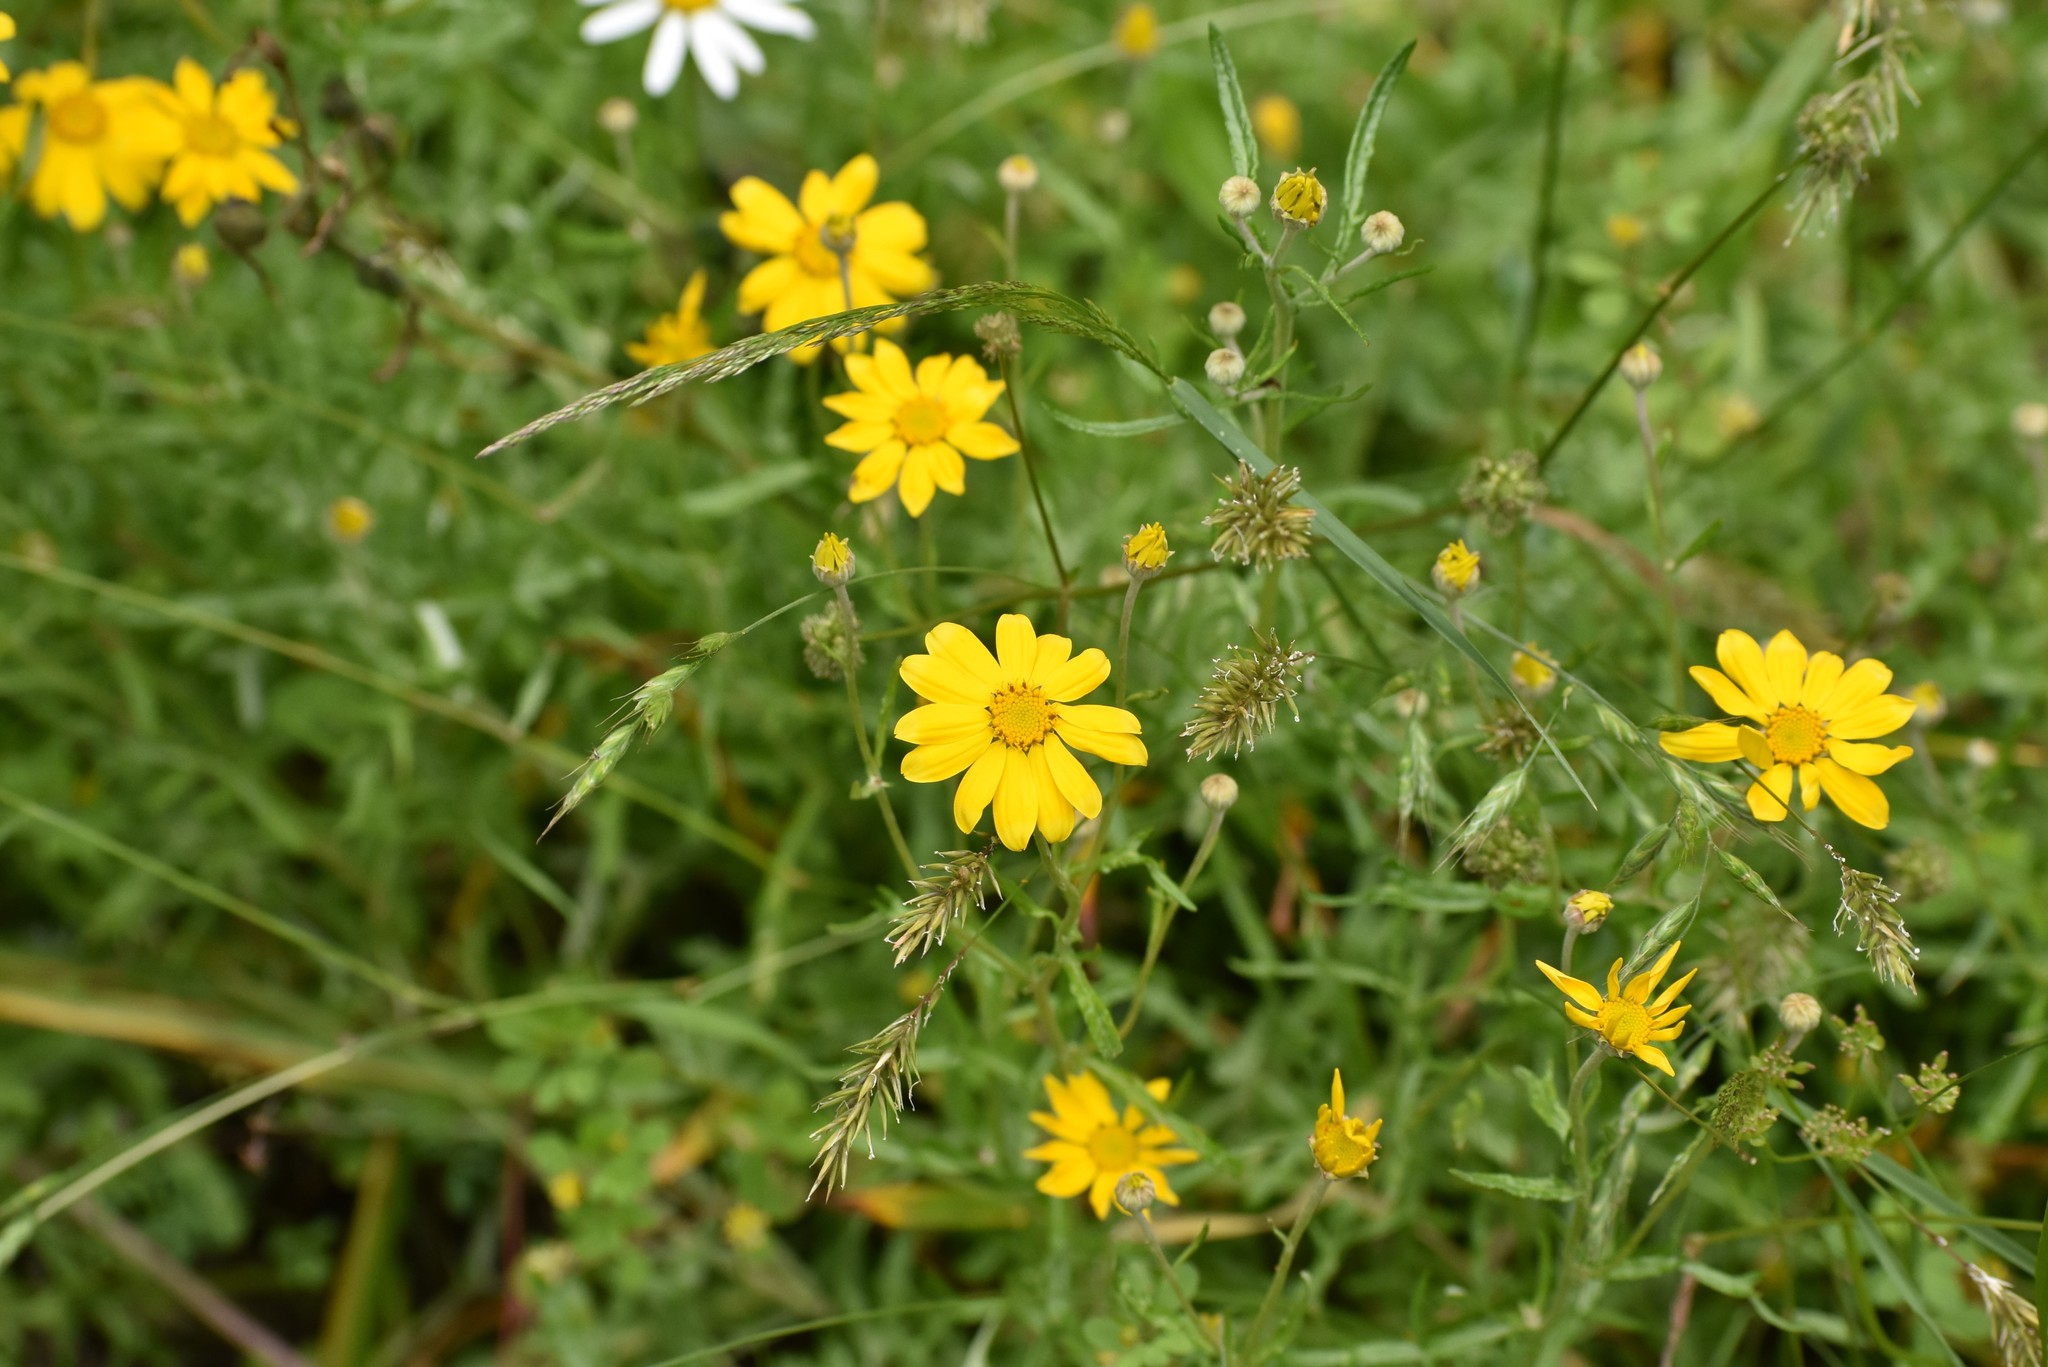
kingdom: Plantae
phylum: Tracheophyta
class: Magnoliopsida
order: Asterales
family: Asteraceae
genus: Eriophyllum
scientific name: Eriophyllum lanatum
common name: Common woolly-sunflower
